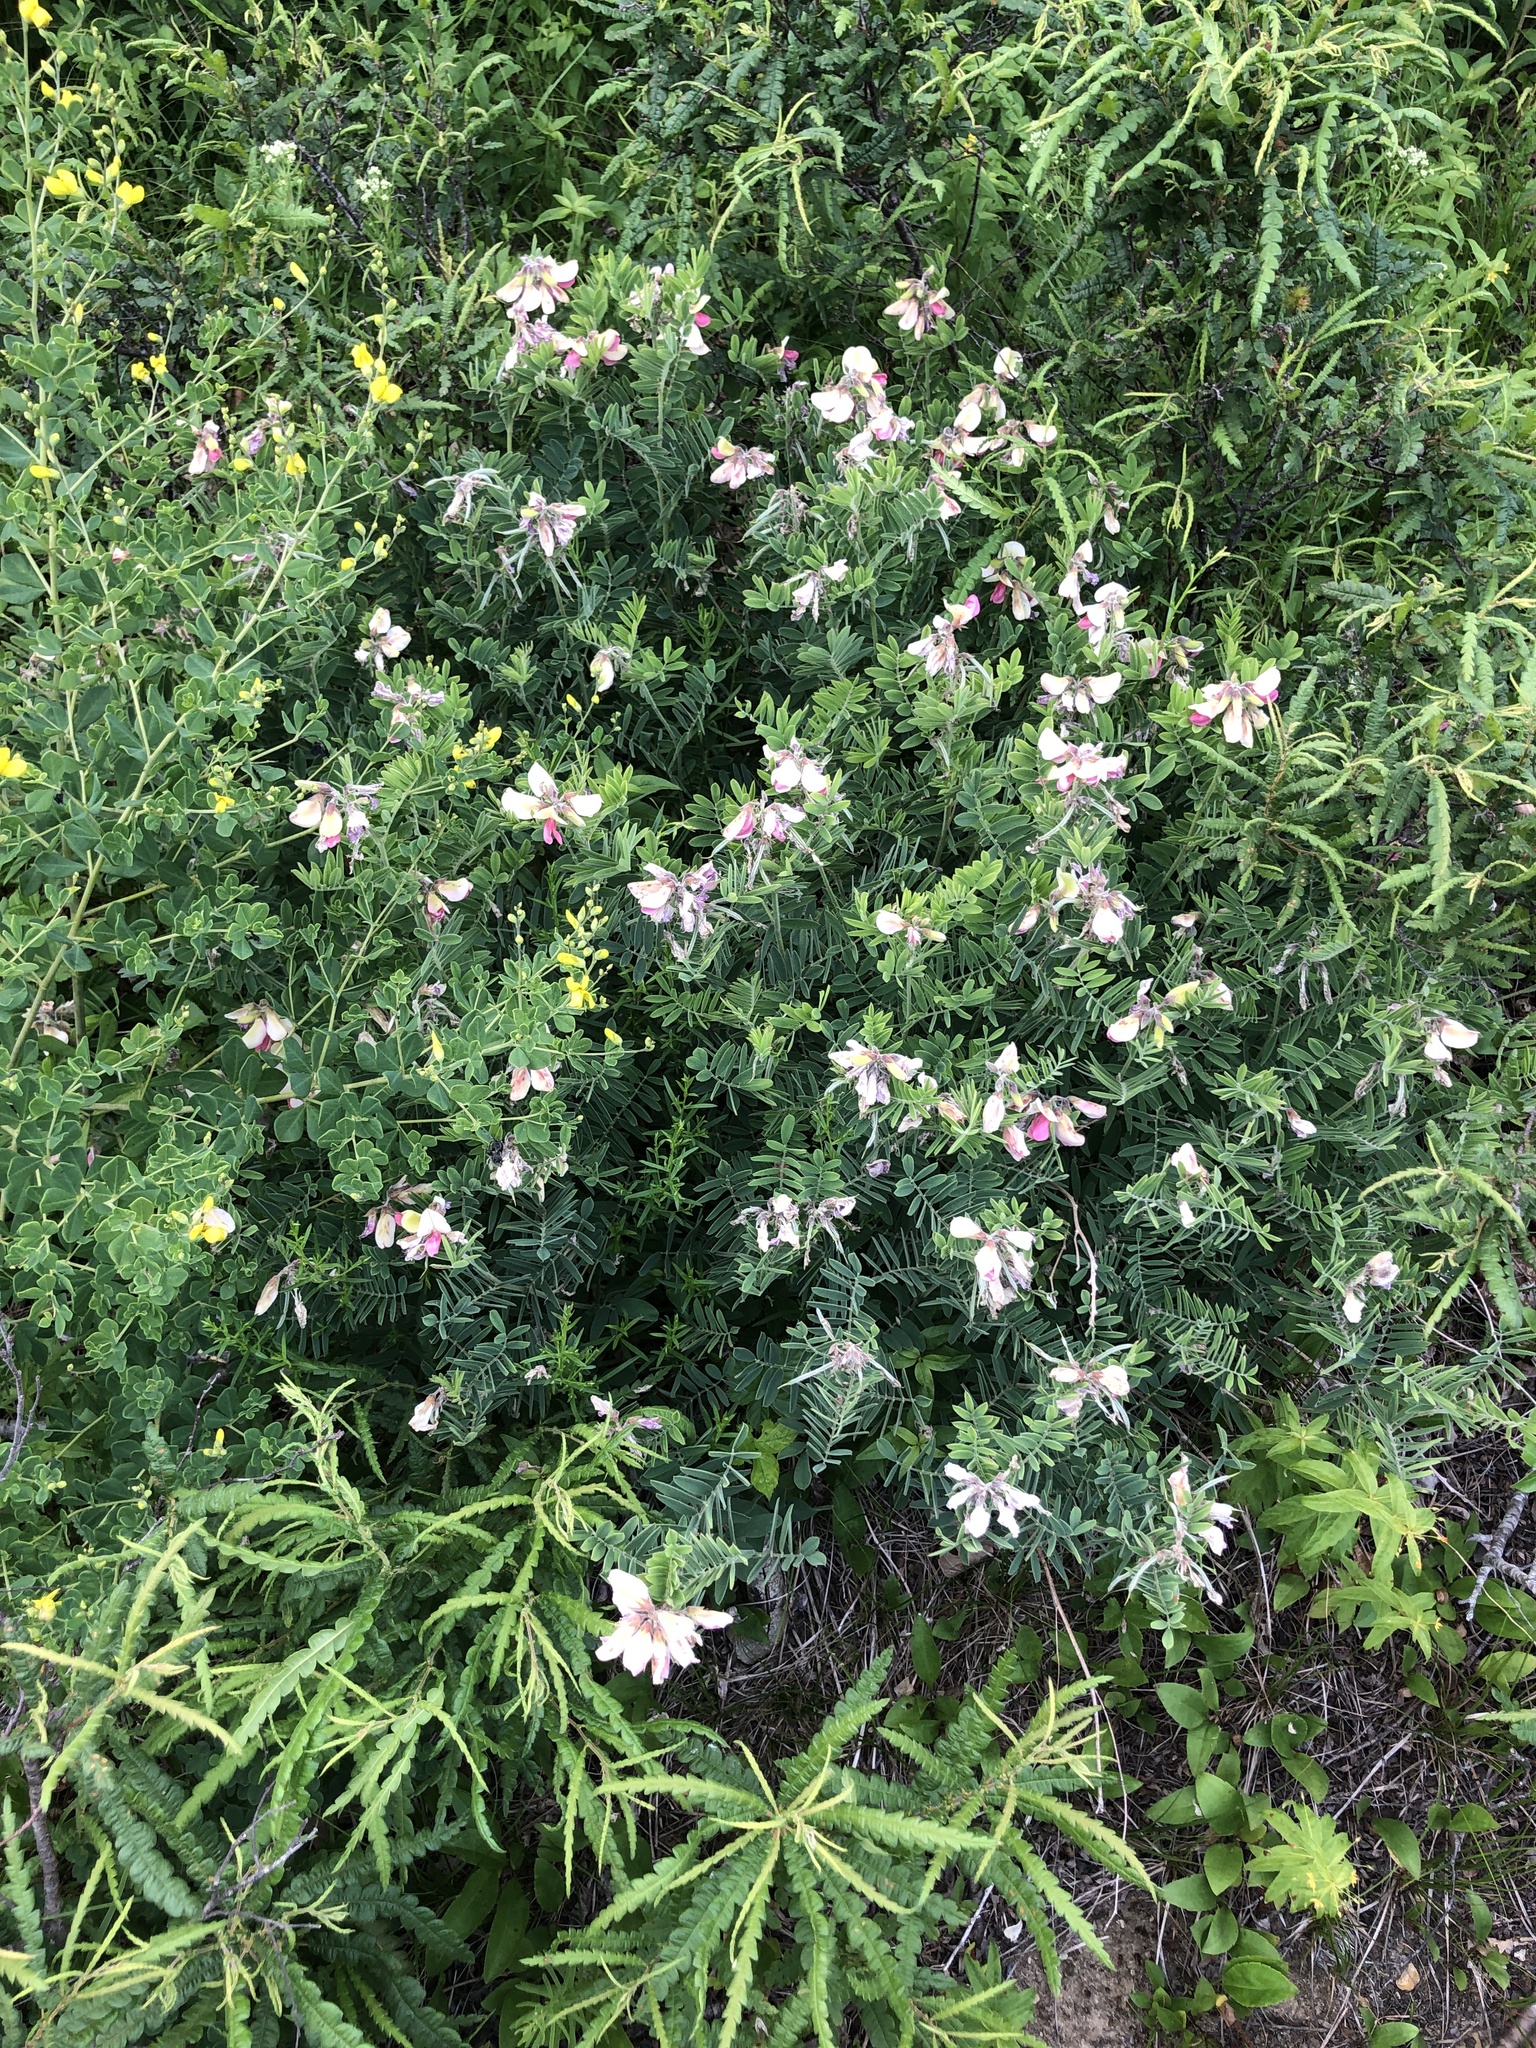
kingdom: Plantae
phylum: Tracheophyta
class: Magnoliopsida
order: Fabales
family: Fabaceae
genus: Tephrosia
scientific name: Tephrosia virginiana
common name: Rabbit-pea
